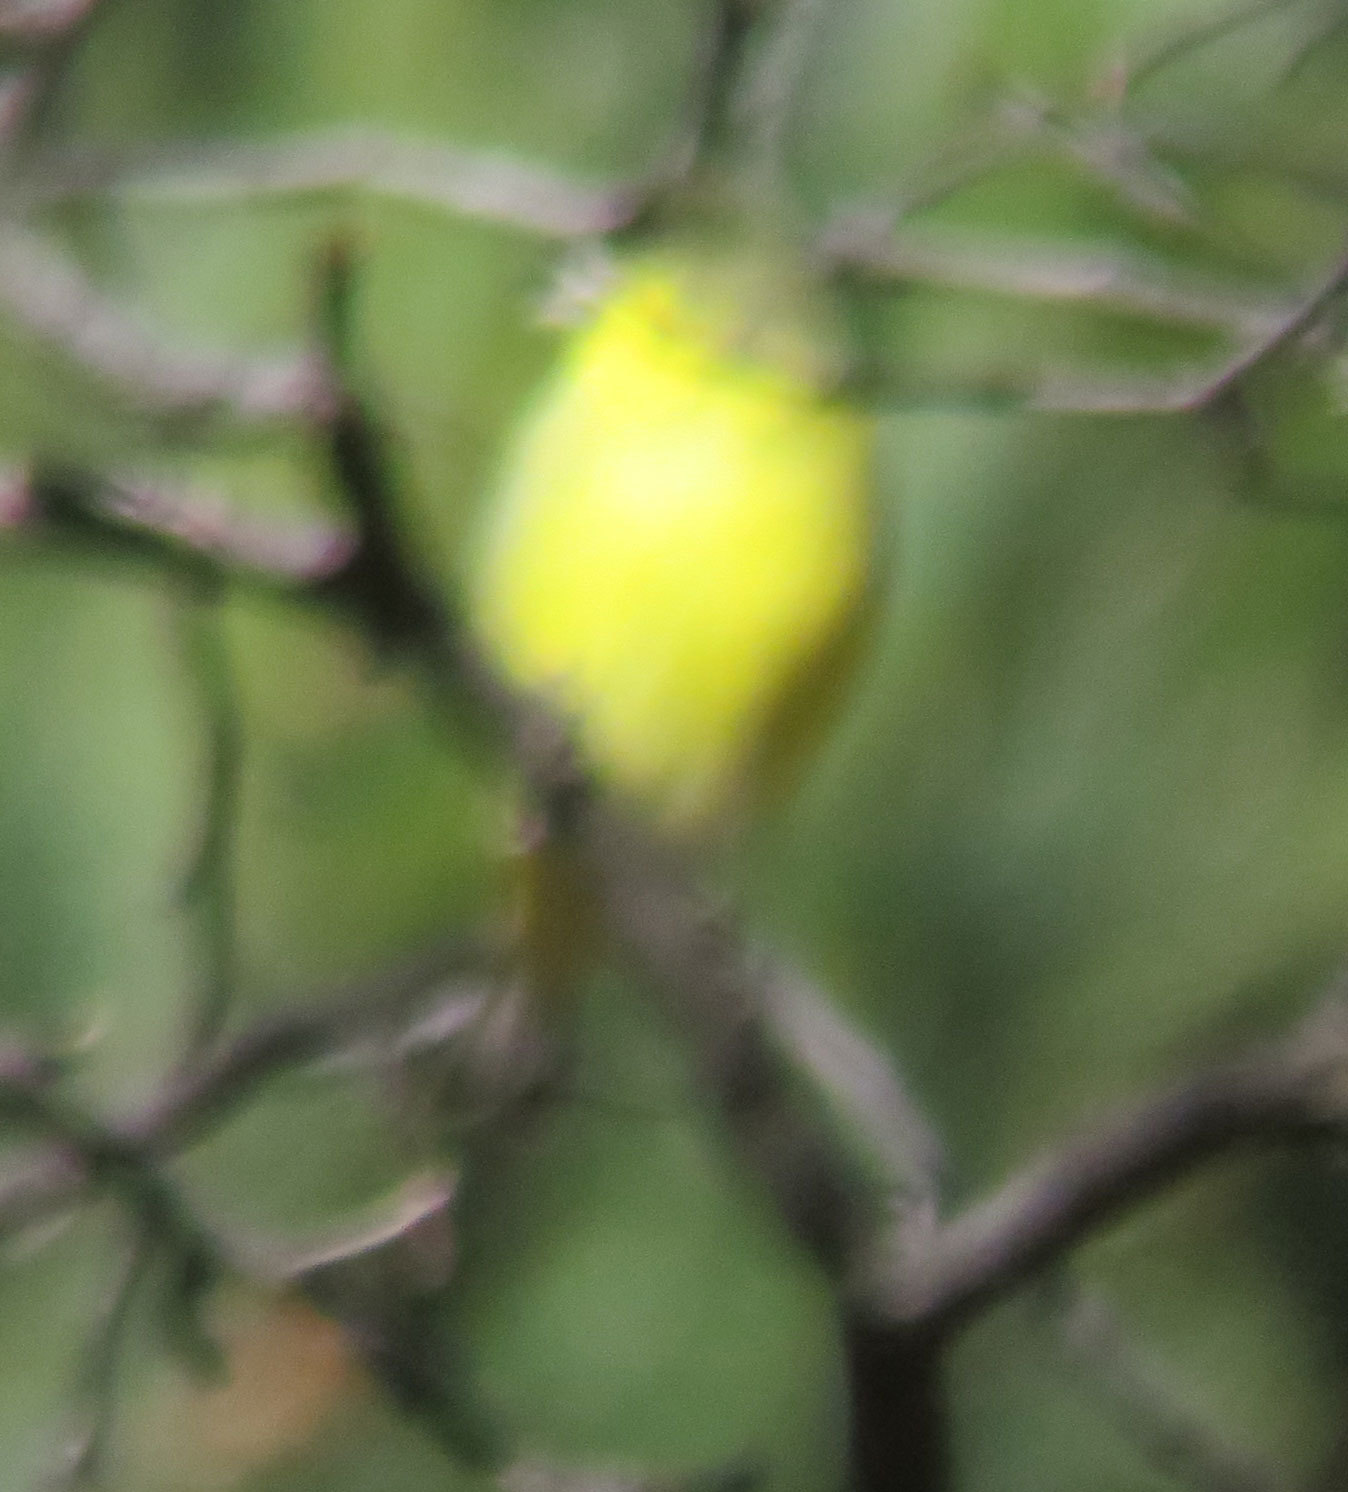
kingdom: Animalia
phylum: Chordata
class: Aves
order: Passeriformes
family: Fringillidae
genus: Spinus
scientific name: Spinus psaltria
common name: Lesser goldfinch
